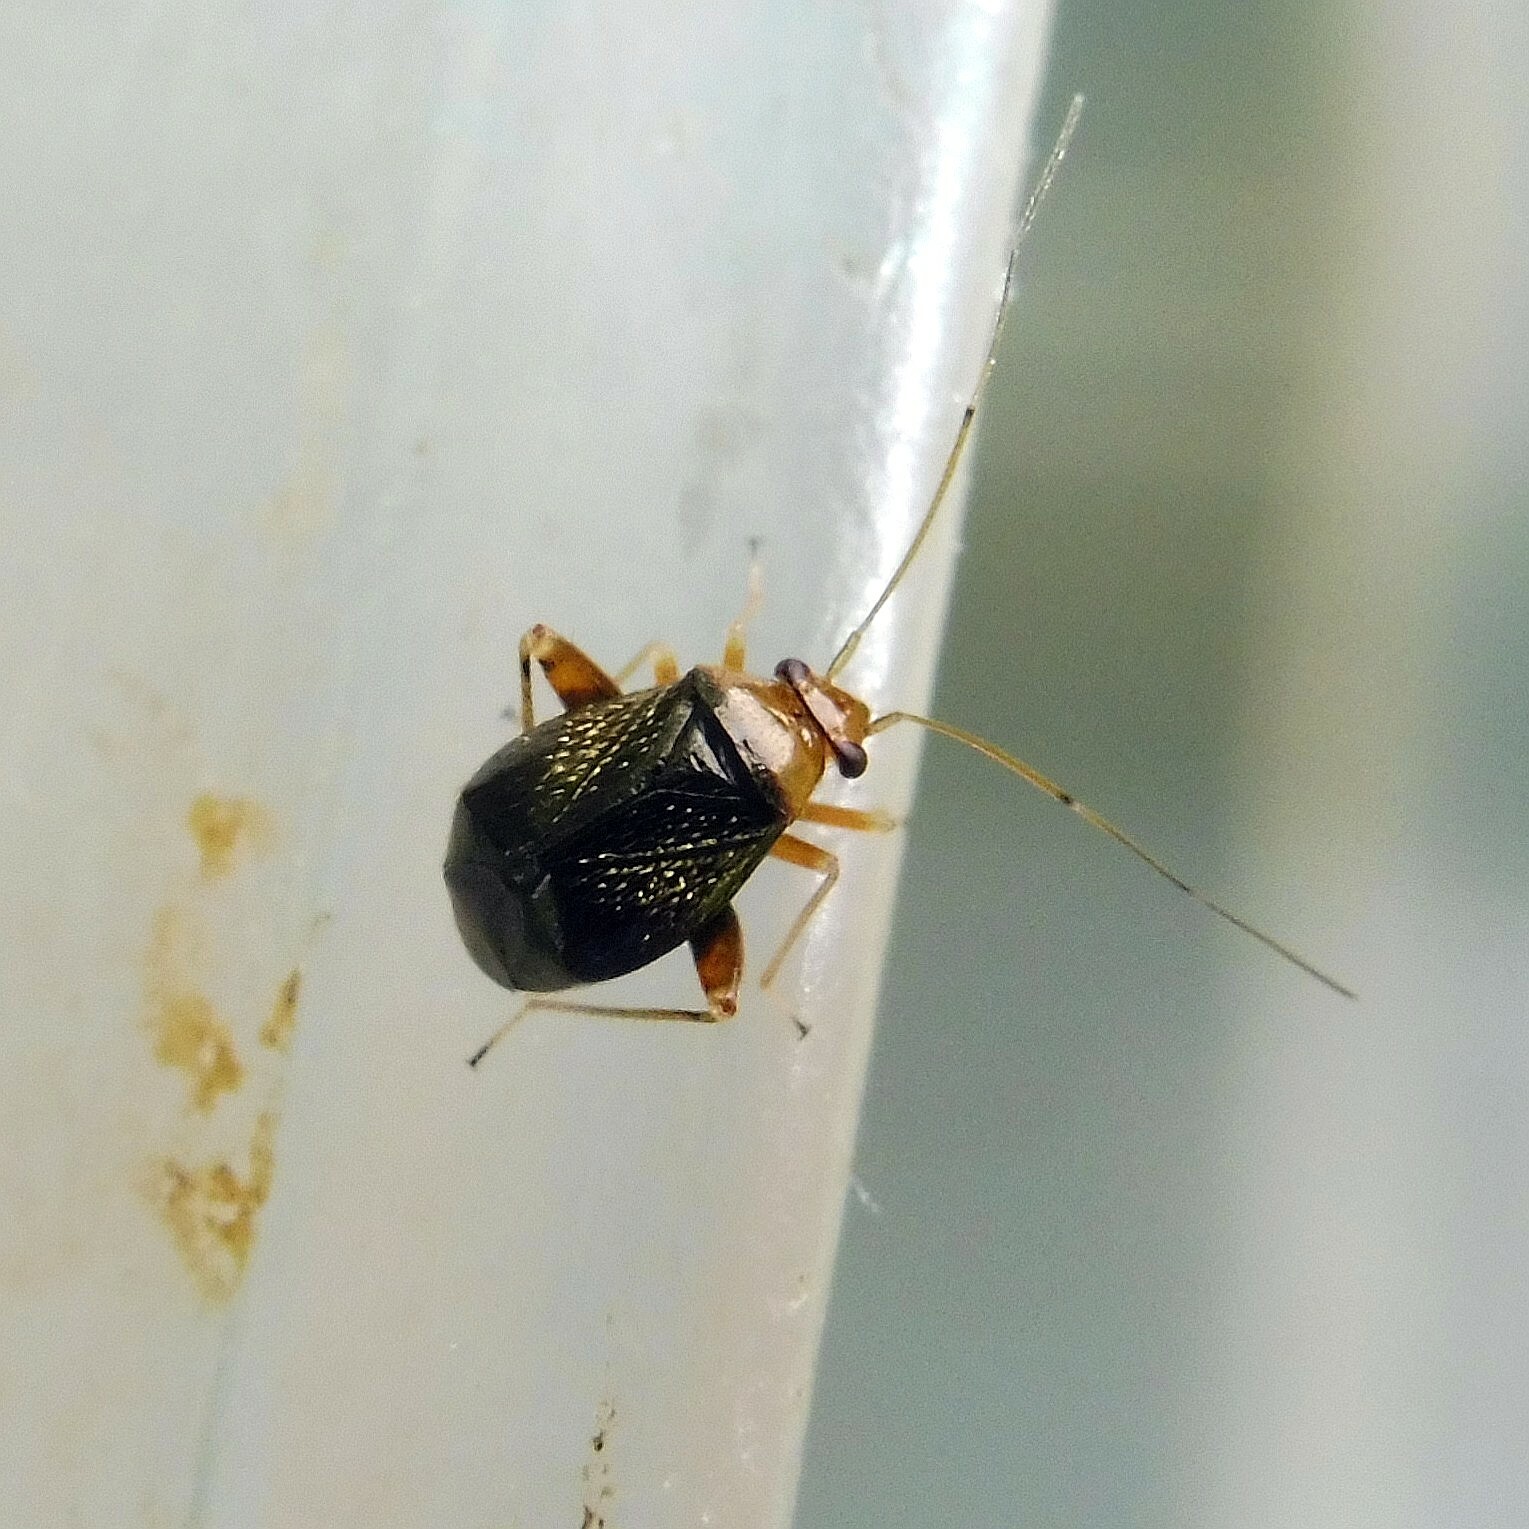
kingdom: Animalia
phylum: Arthropoda
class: Insecta
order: Hemiptera
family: Miridae
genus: Halticus
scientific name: Halticus luteicollis
